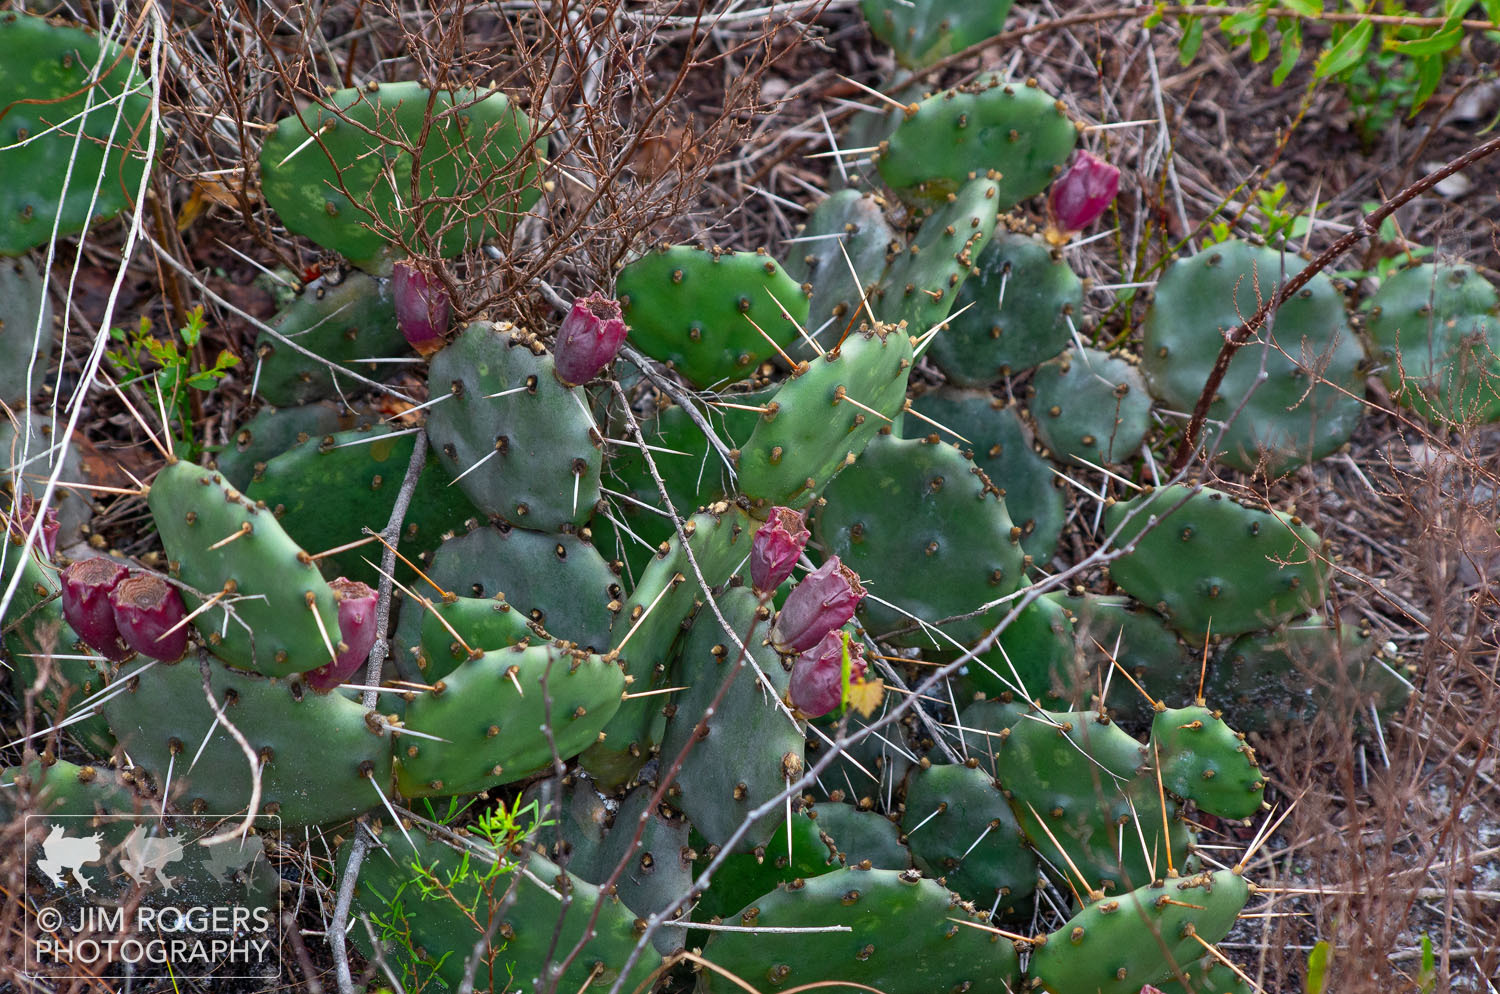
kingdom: Plantae
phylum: Tracheophyta
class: Magnoliopsida
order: Caryophyllales
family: Cactaceae
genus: Opuntia
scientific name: Opuntia mesacantha
